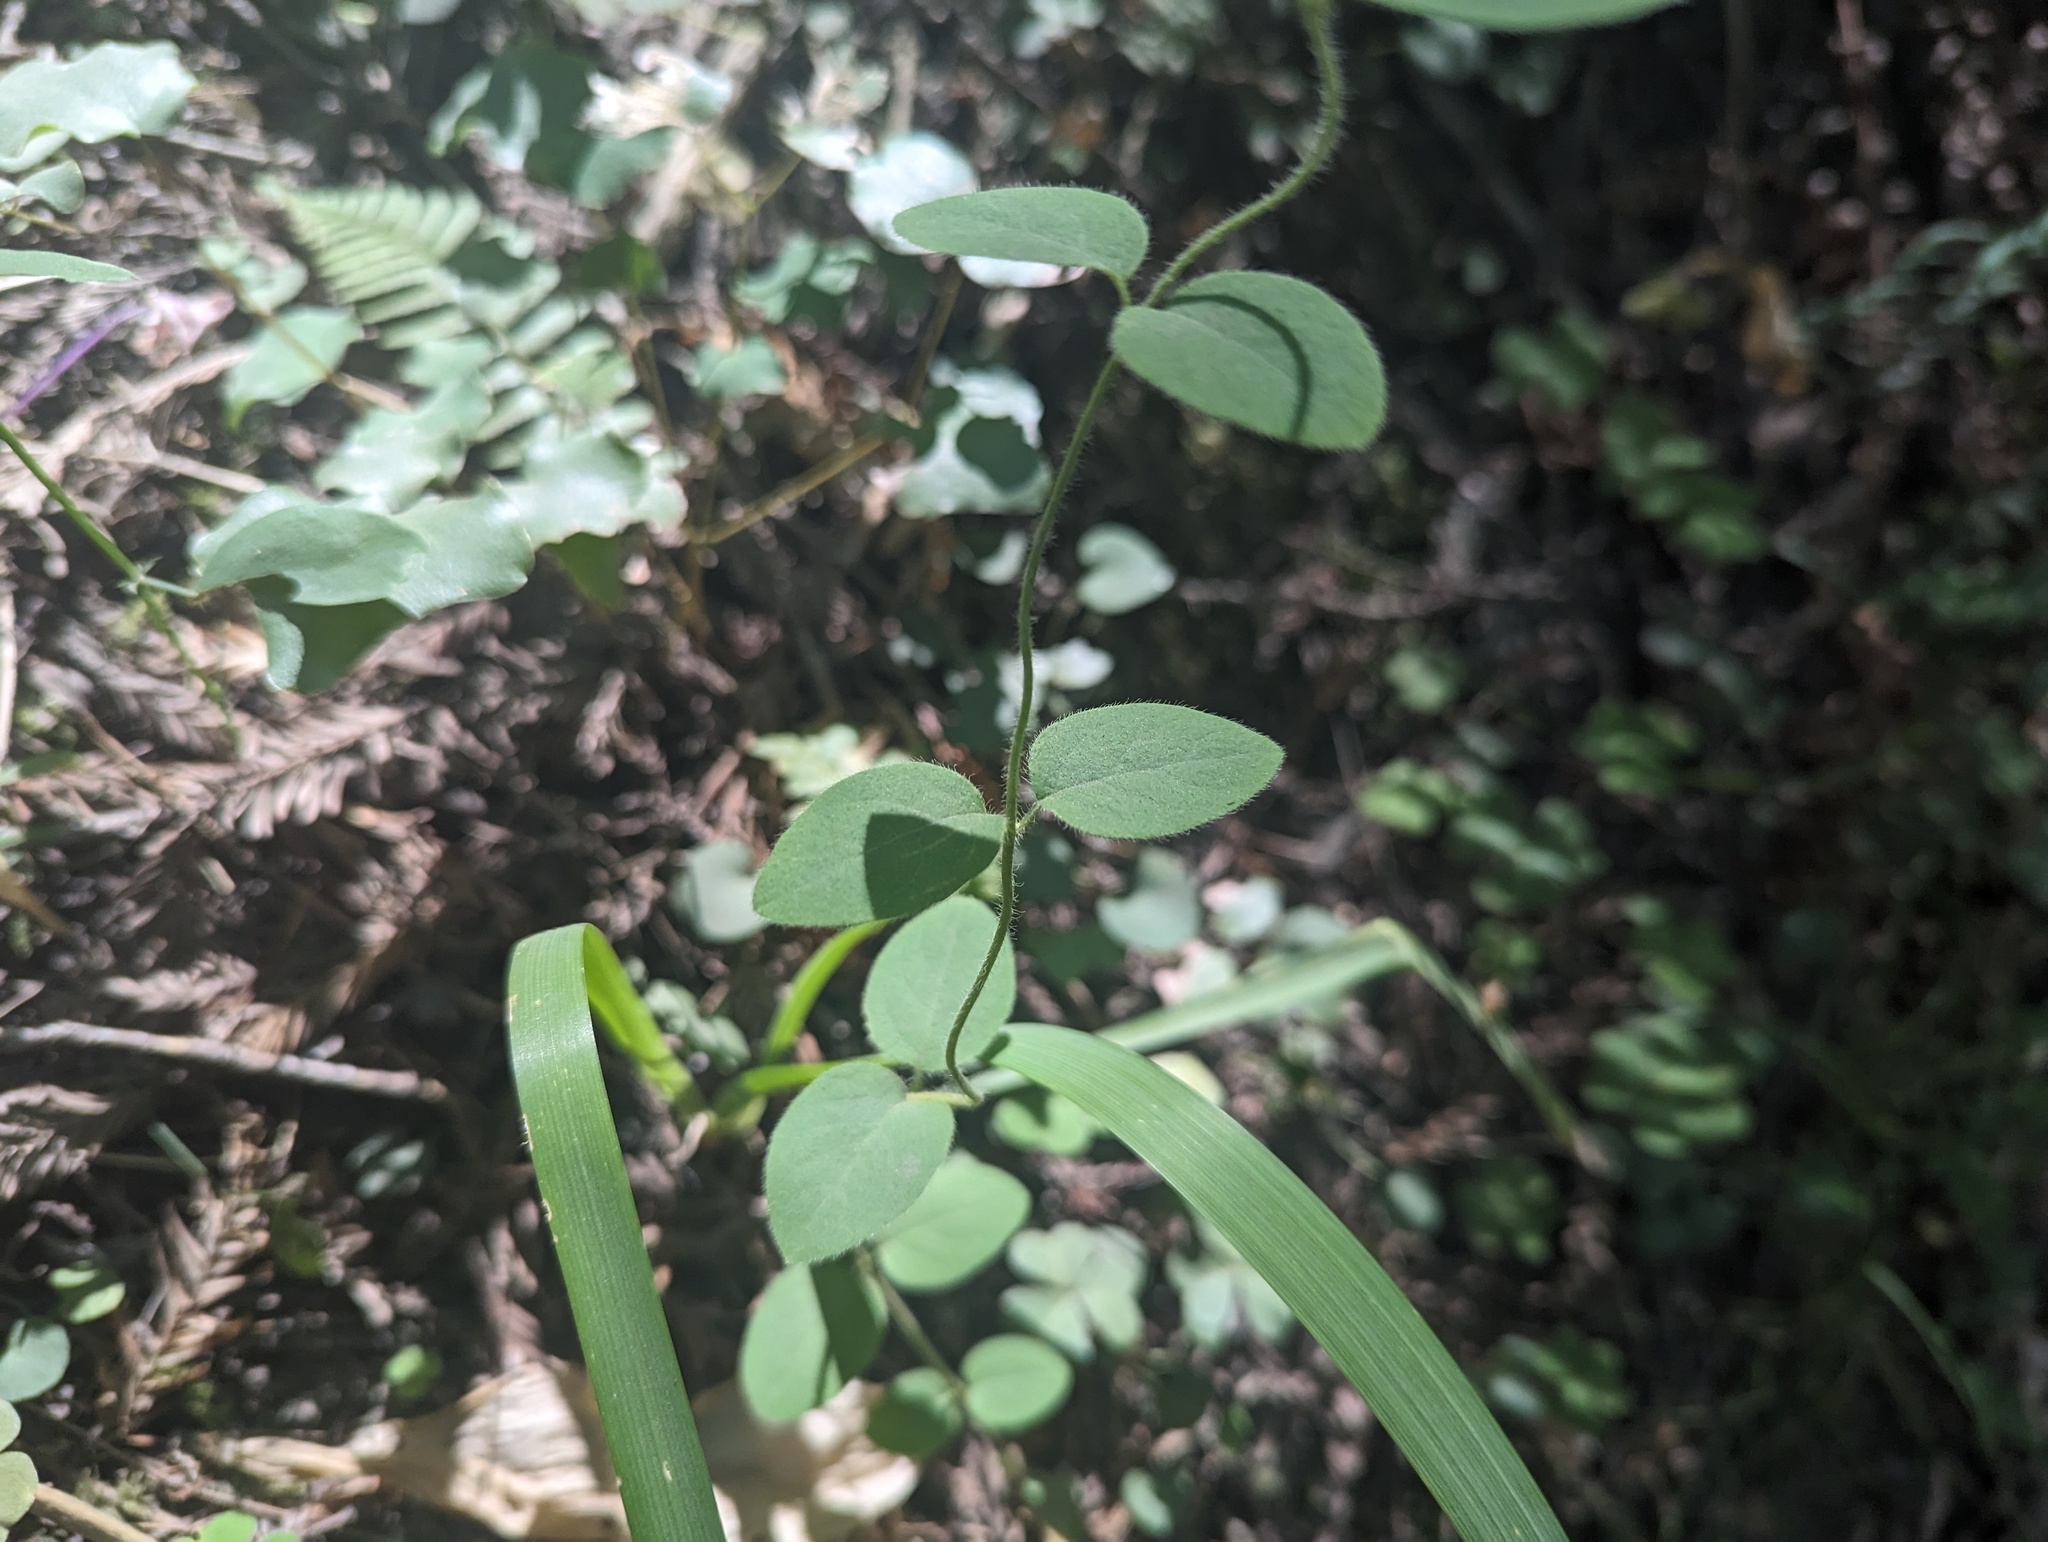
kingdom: Plantae
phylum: Tracheophyta
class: Magnoliopsida
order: Dipsacales
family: Caprifoliaceae
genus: Lonicera
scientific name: Lonicera hispidula
